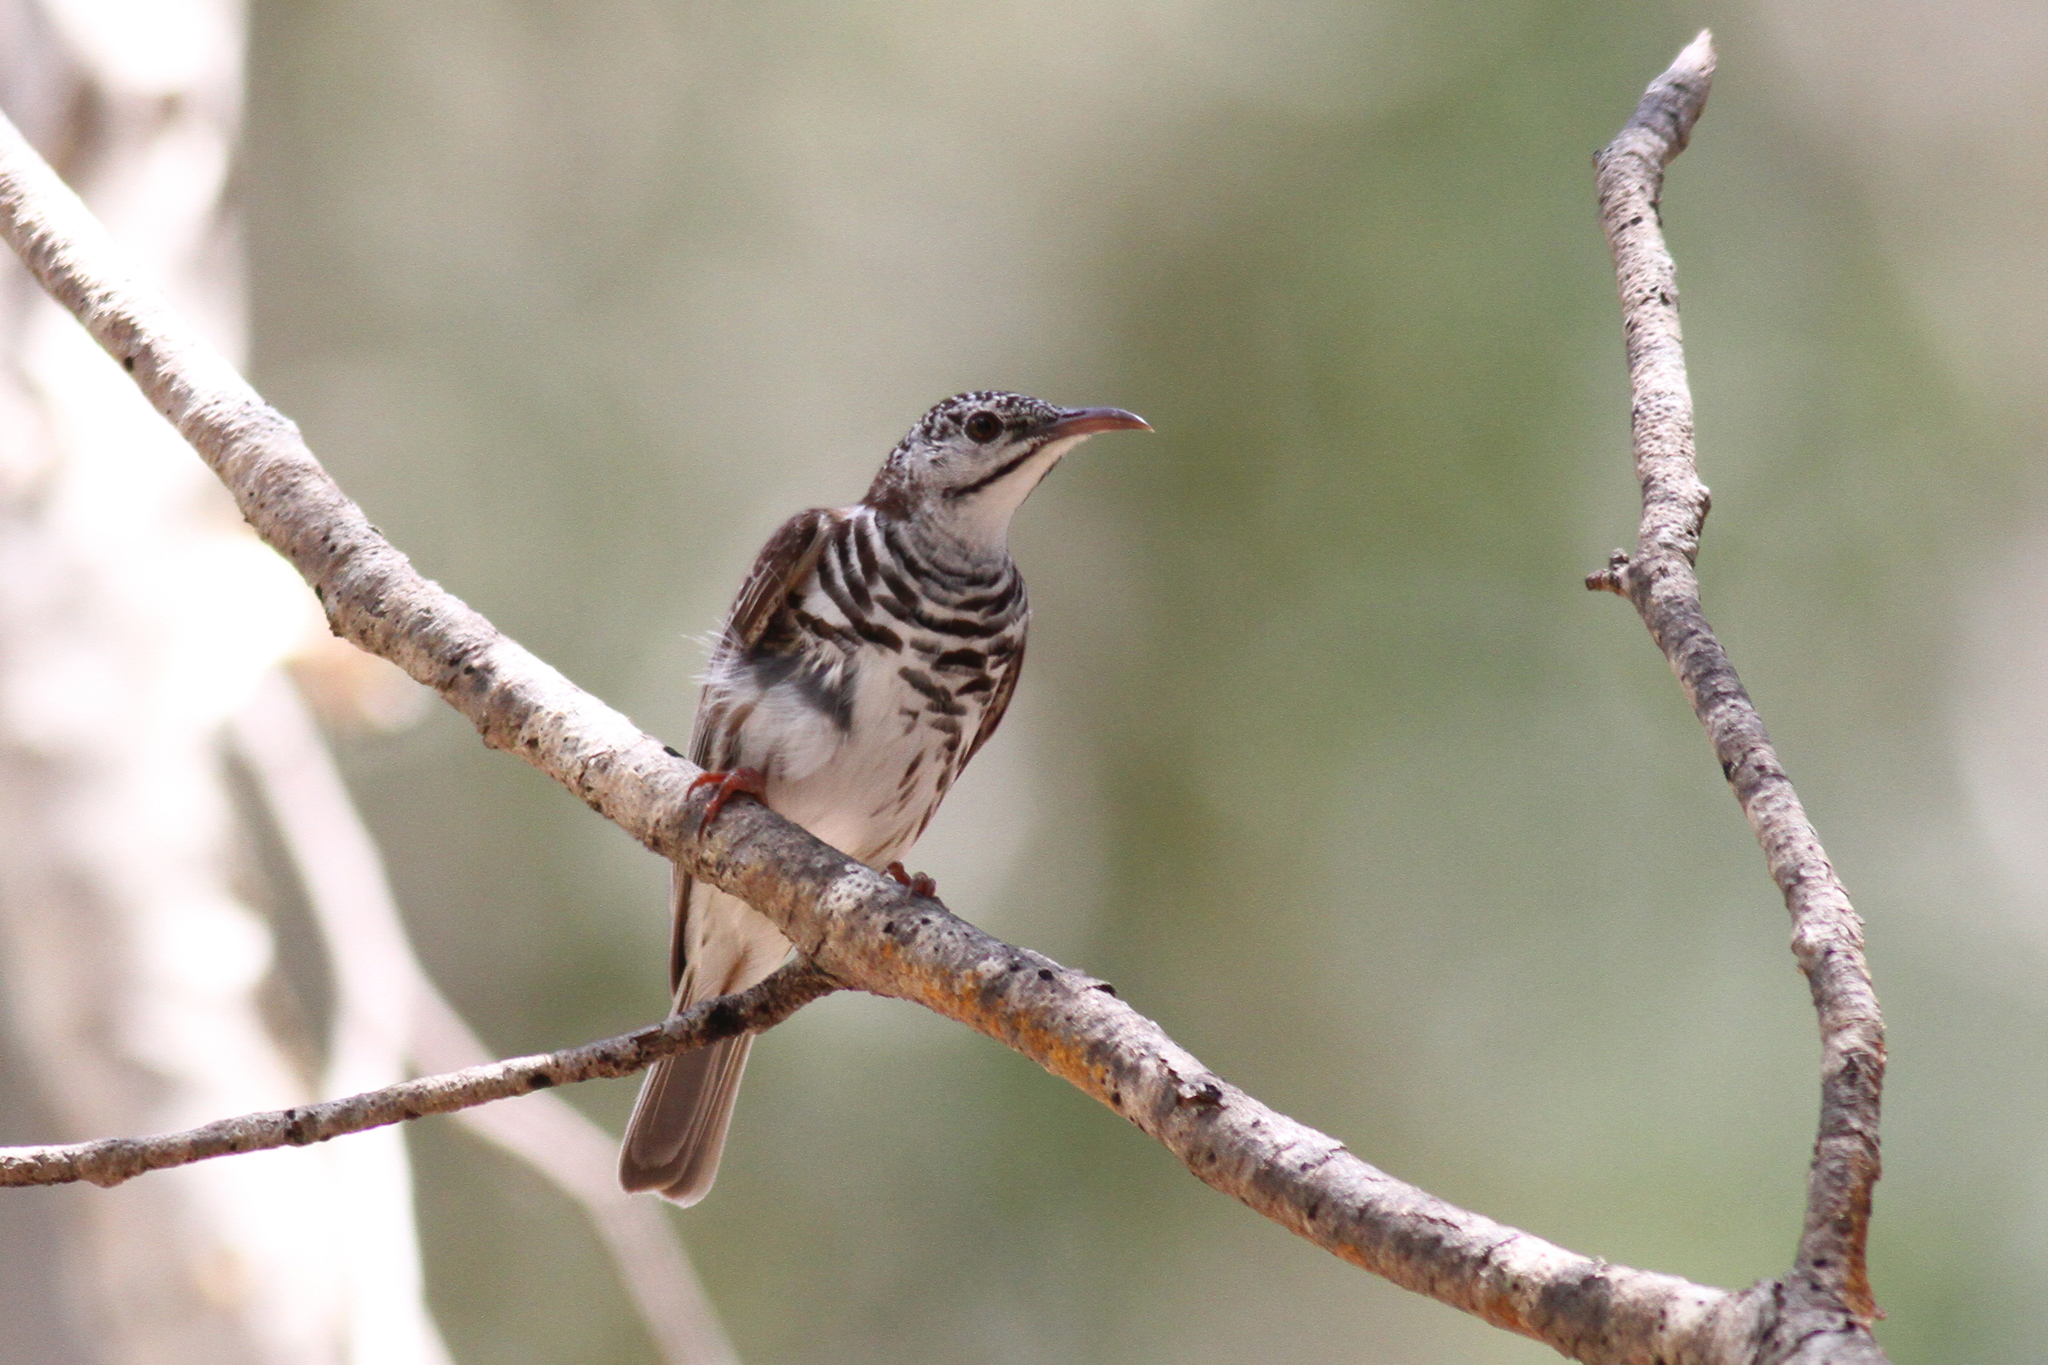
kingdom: Animalia
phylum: Chordata
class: Aves
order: Passeriformes
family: Meliphagidae
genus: Ramsayornis
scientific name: Ramsayornis fasciatus
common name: Bar-breasted honeyeater
